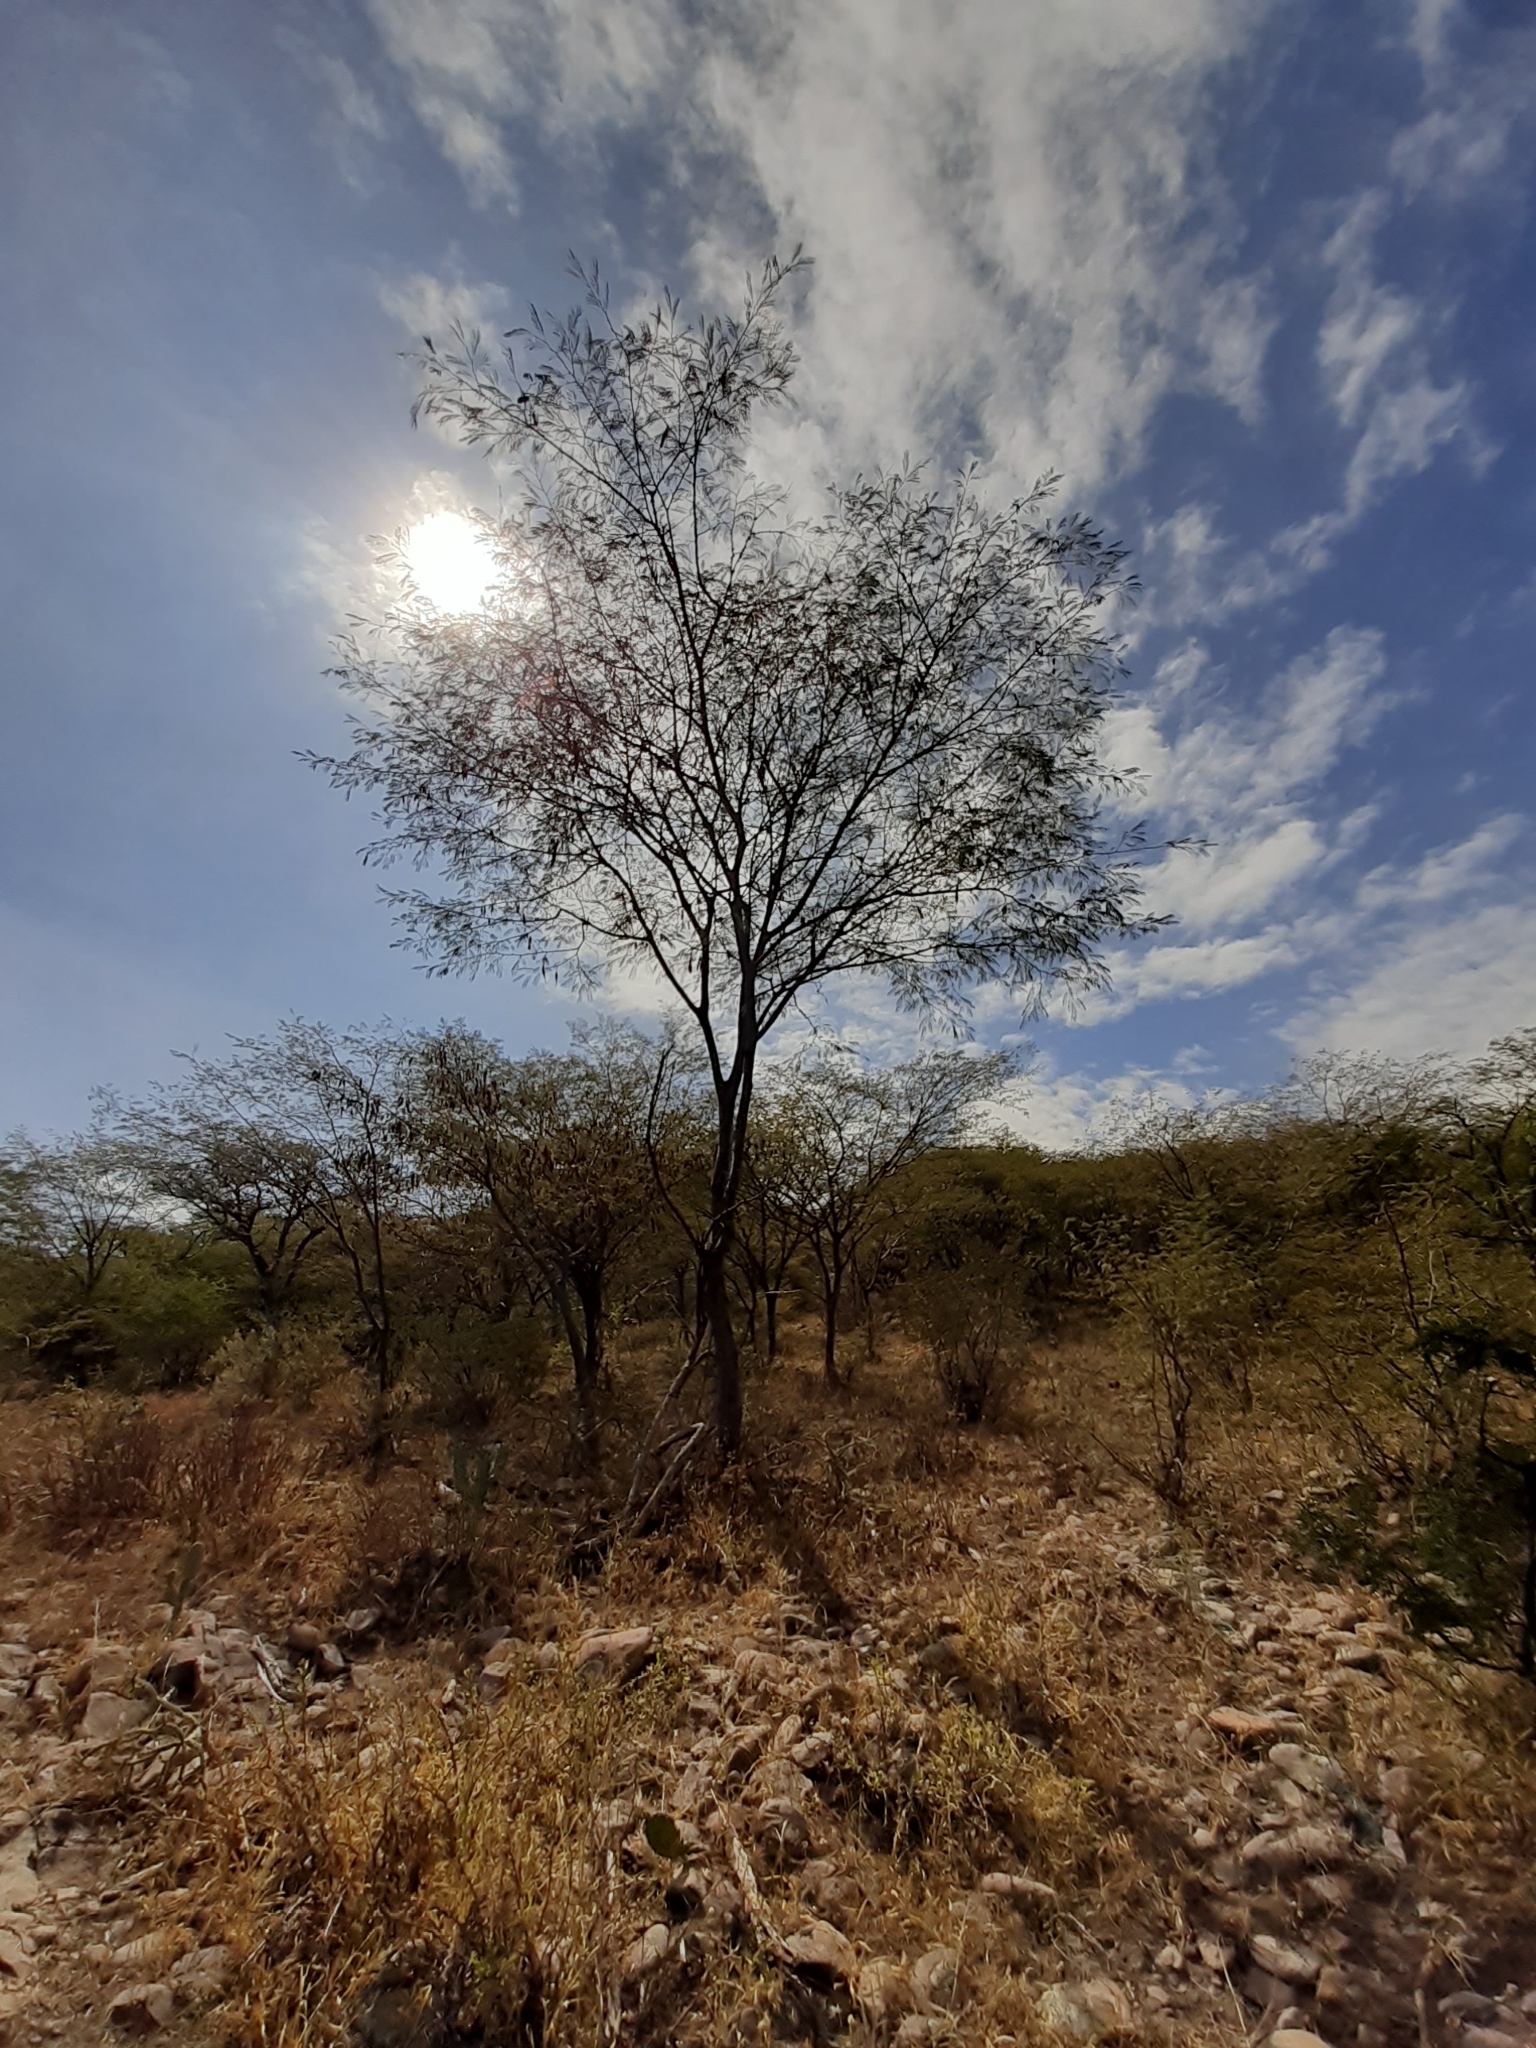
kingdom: Plantae
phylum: Tracheophyta
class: Magnoliopsida
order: Fabales
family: Fabaceae
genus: Lysiloma
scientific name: Lysiloma divaricatum
